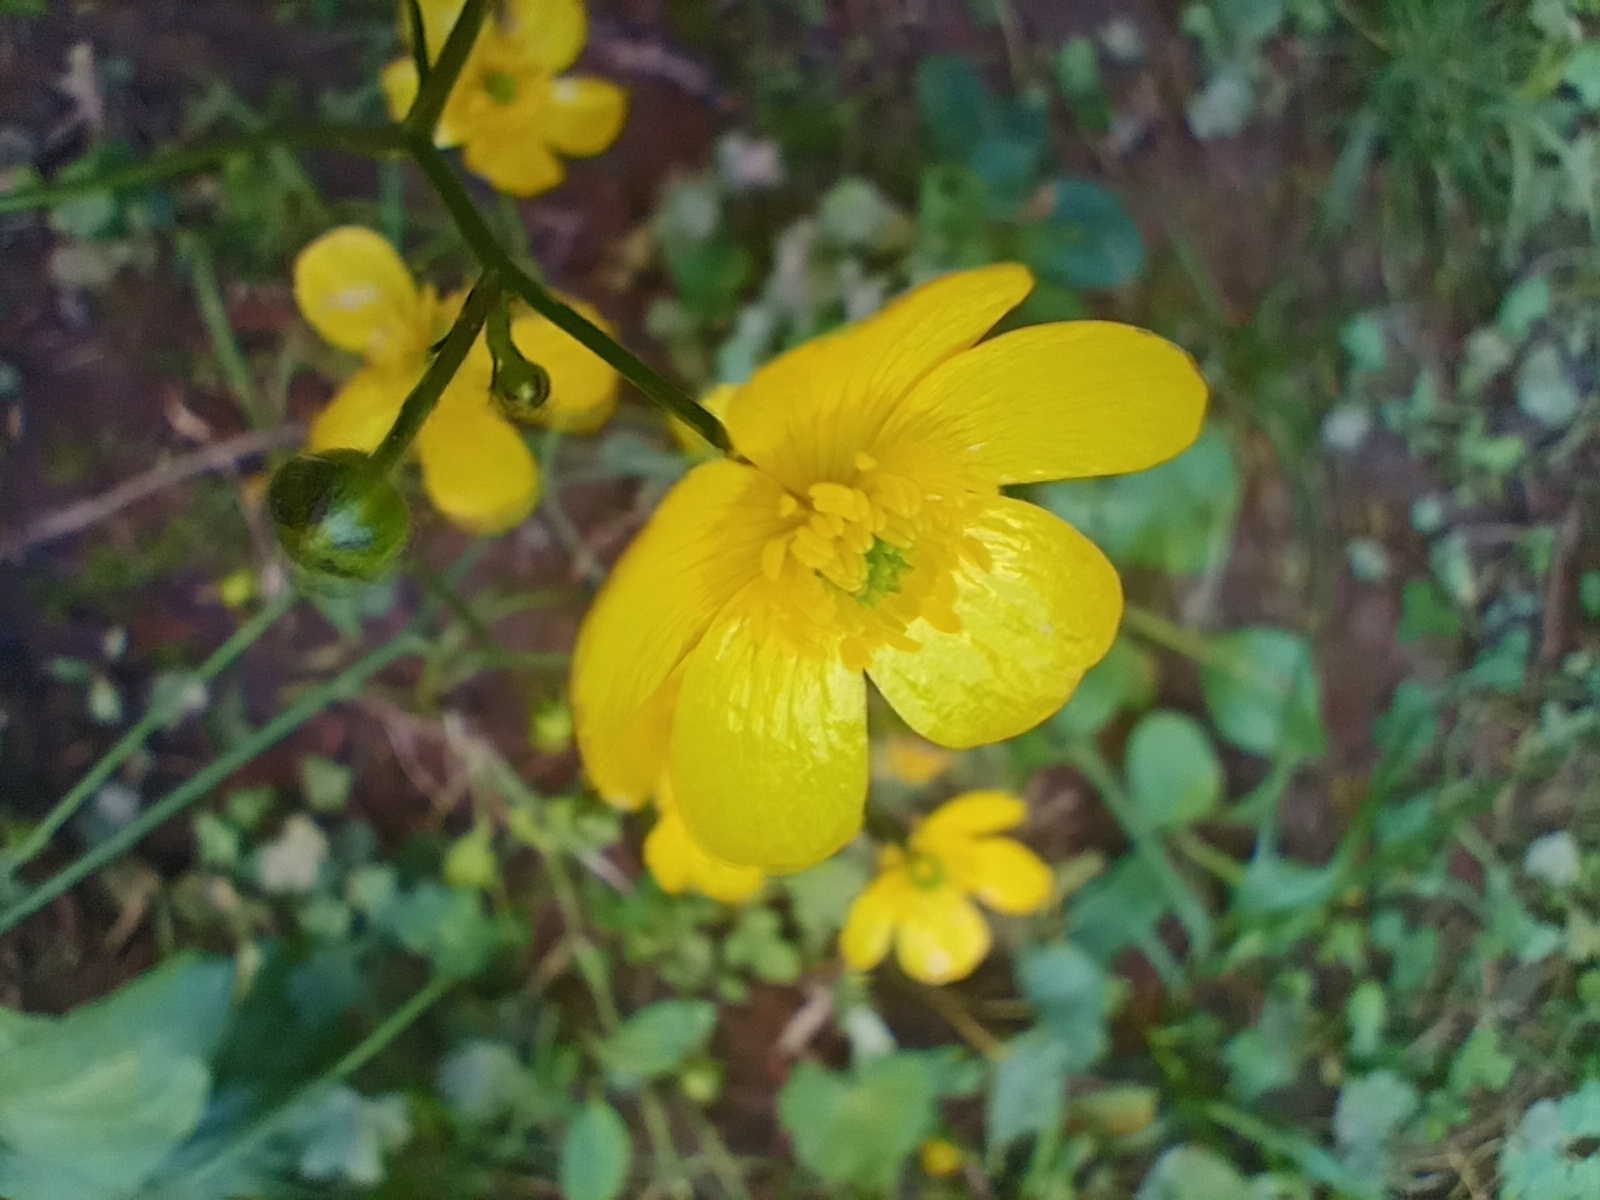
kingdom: Plantae
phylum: Tracheophyta
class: Magnoliopsida
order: Ranunculales
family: Ranunculaceae
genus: Ranunculus
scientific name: Ranunculus polyanthemos
